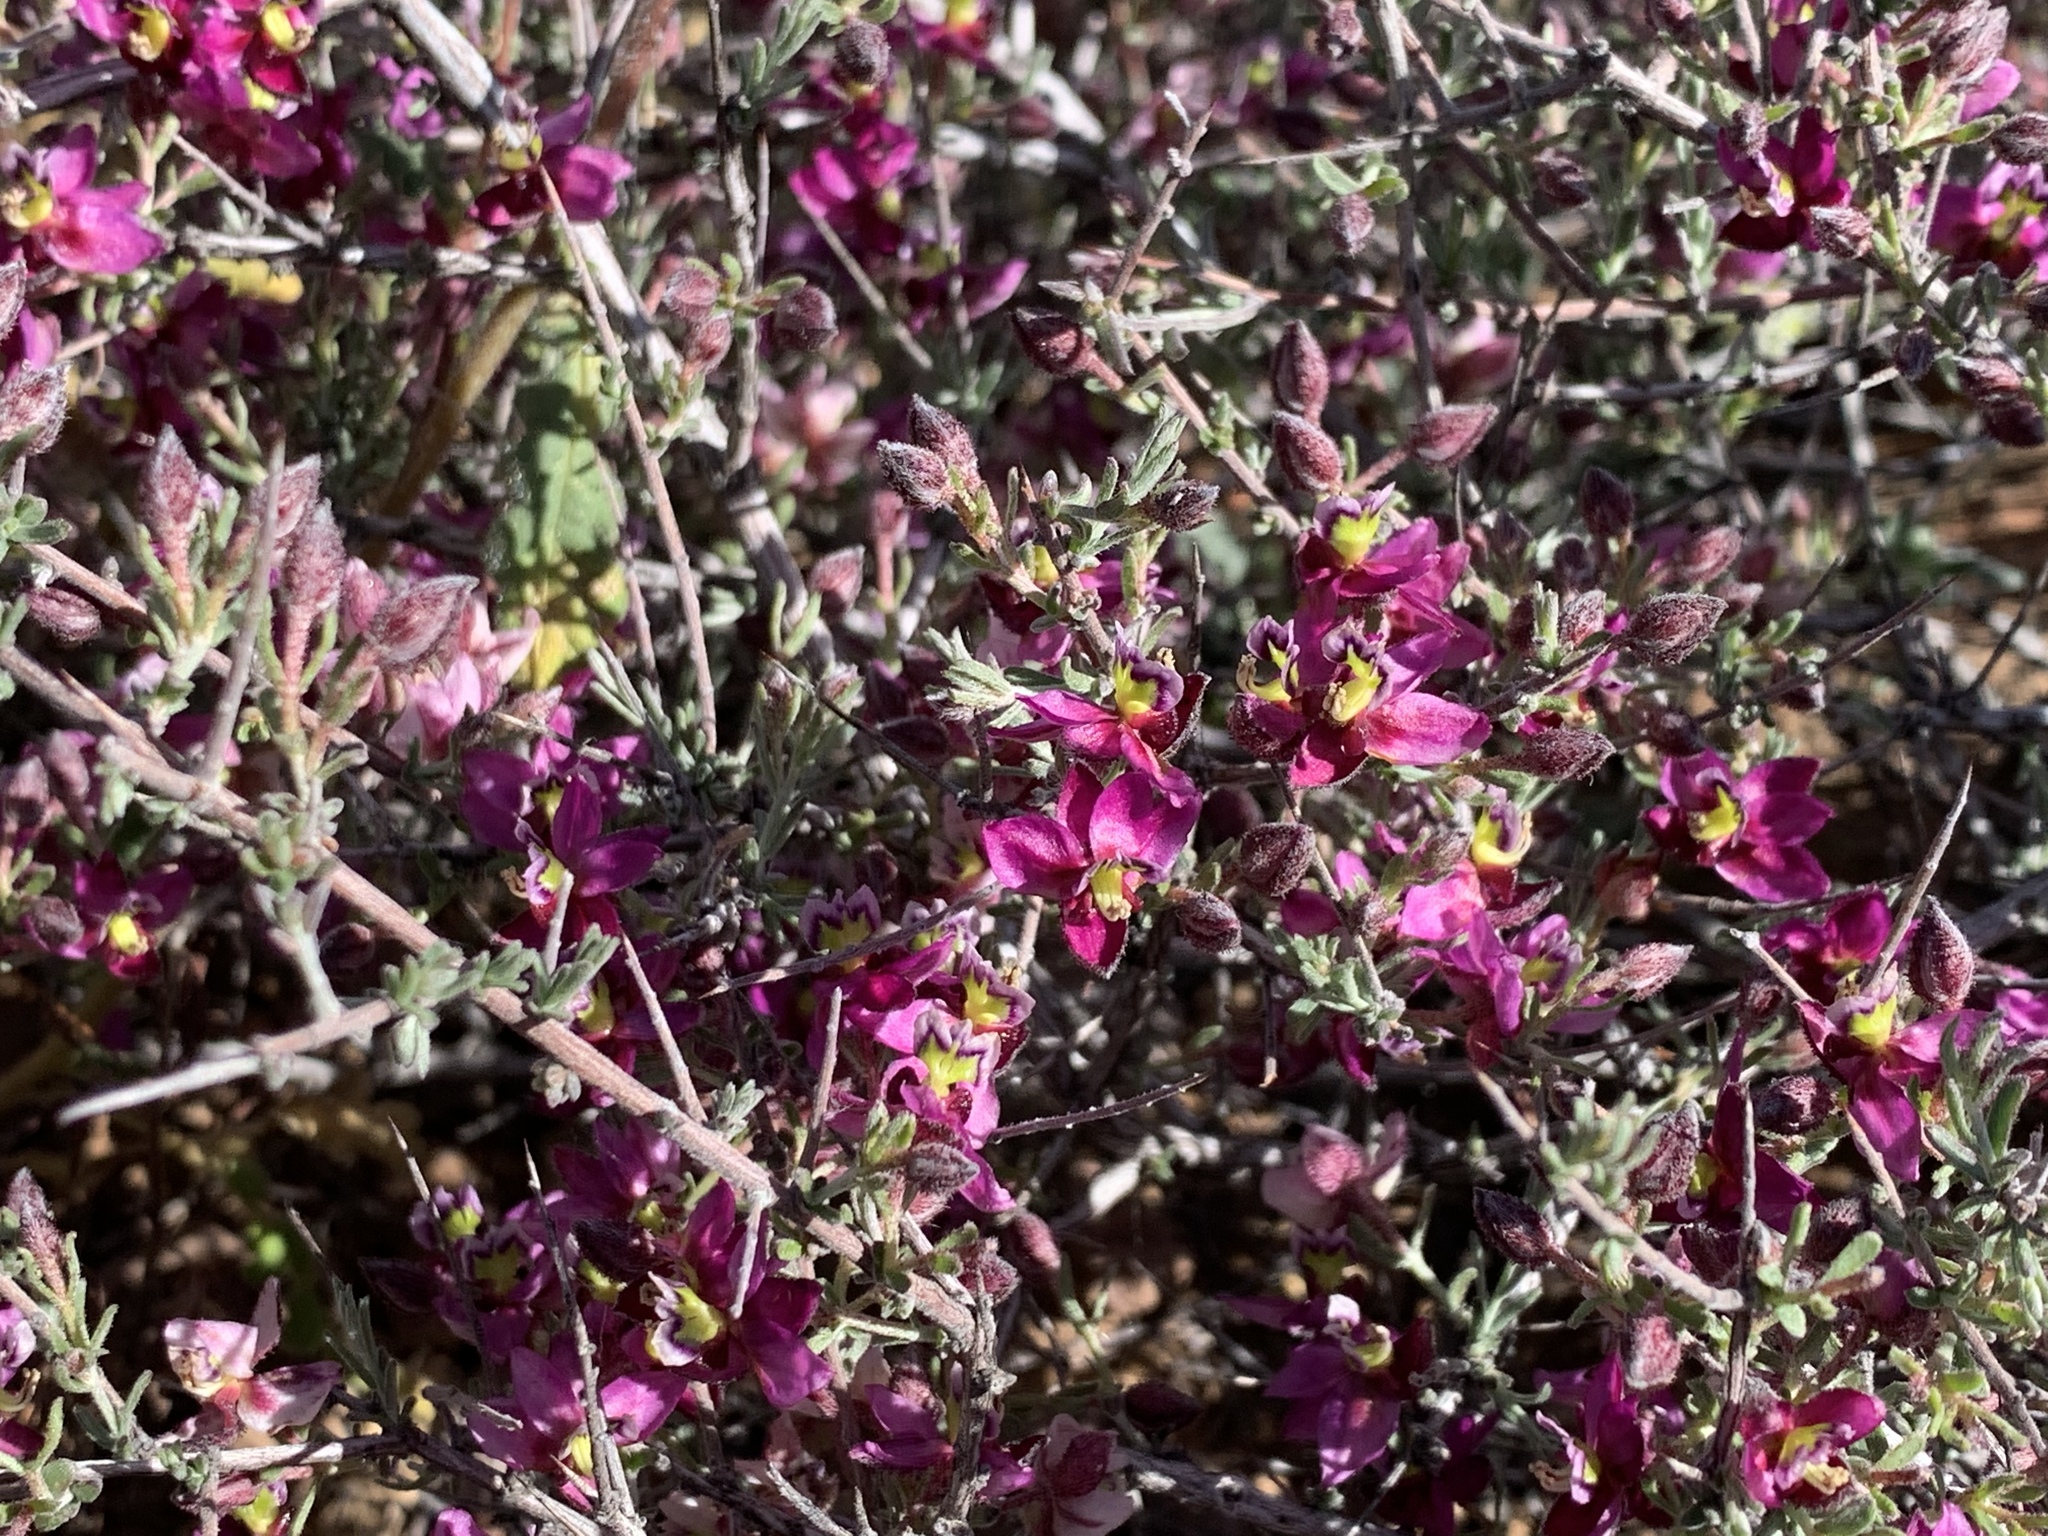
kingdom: Plantae
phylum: Tracheophyta
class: Magnoliopsida
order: Zygophyllales
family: Krameriaceae
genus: Krameria
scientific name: Krameria erecta
